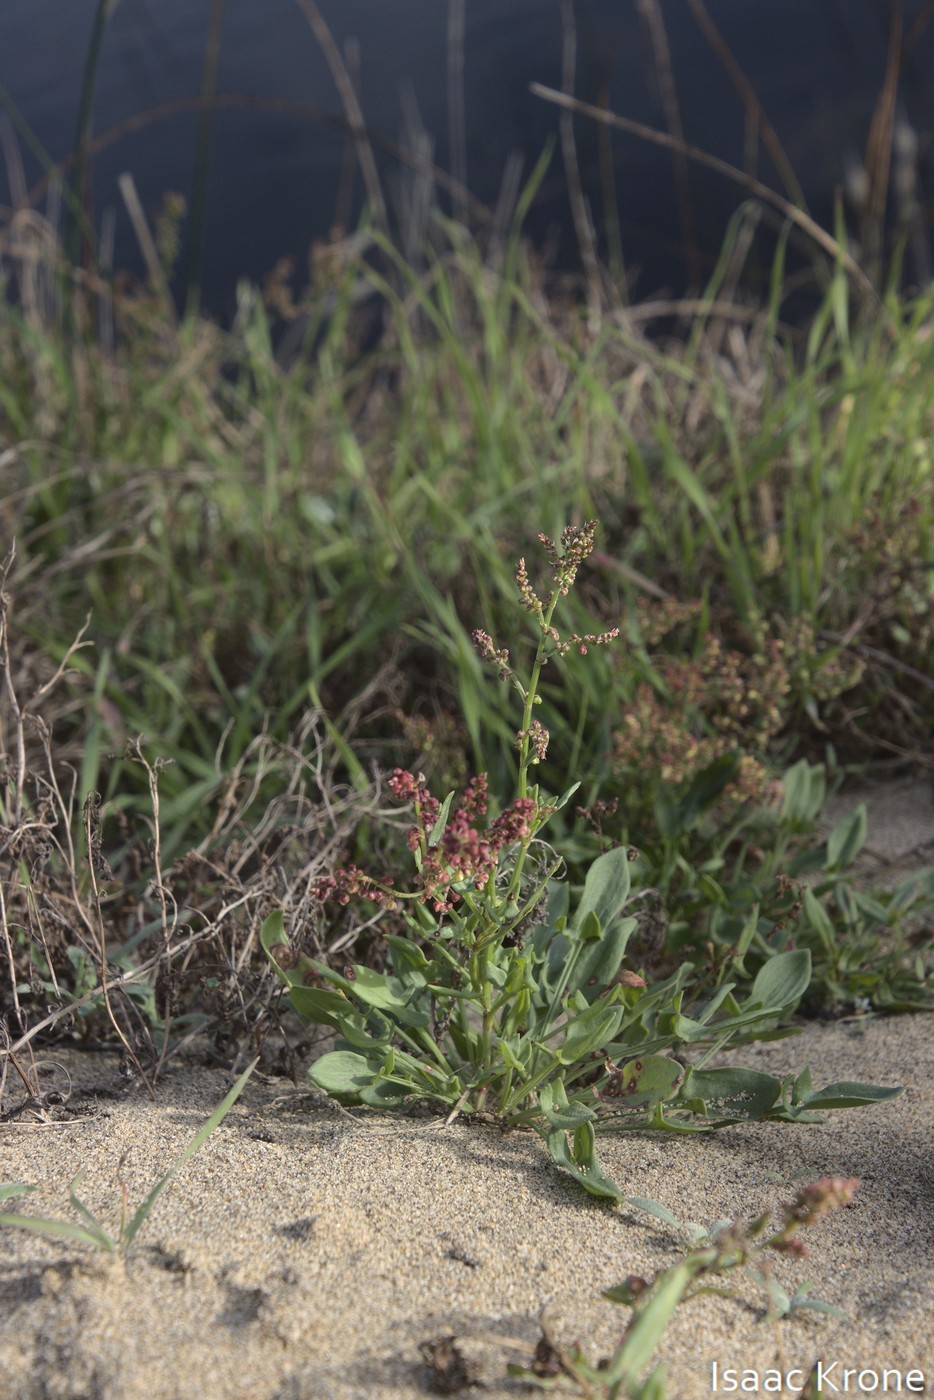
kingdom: Plantae
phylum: Tracheophyta
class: Magnoliopsida
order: Caryophyllales
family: Polygonaceae
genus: Rumex
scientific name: Rumex acetosella
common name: Common sheep sorrel
